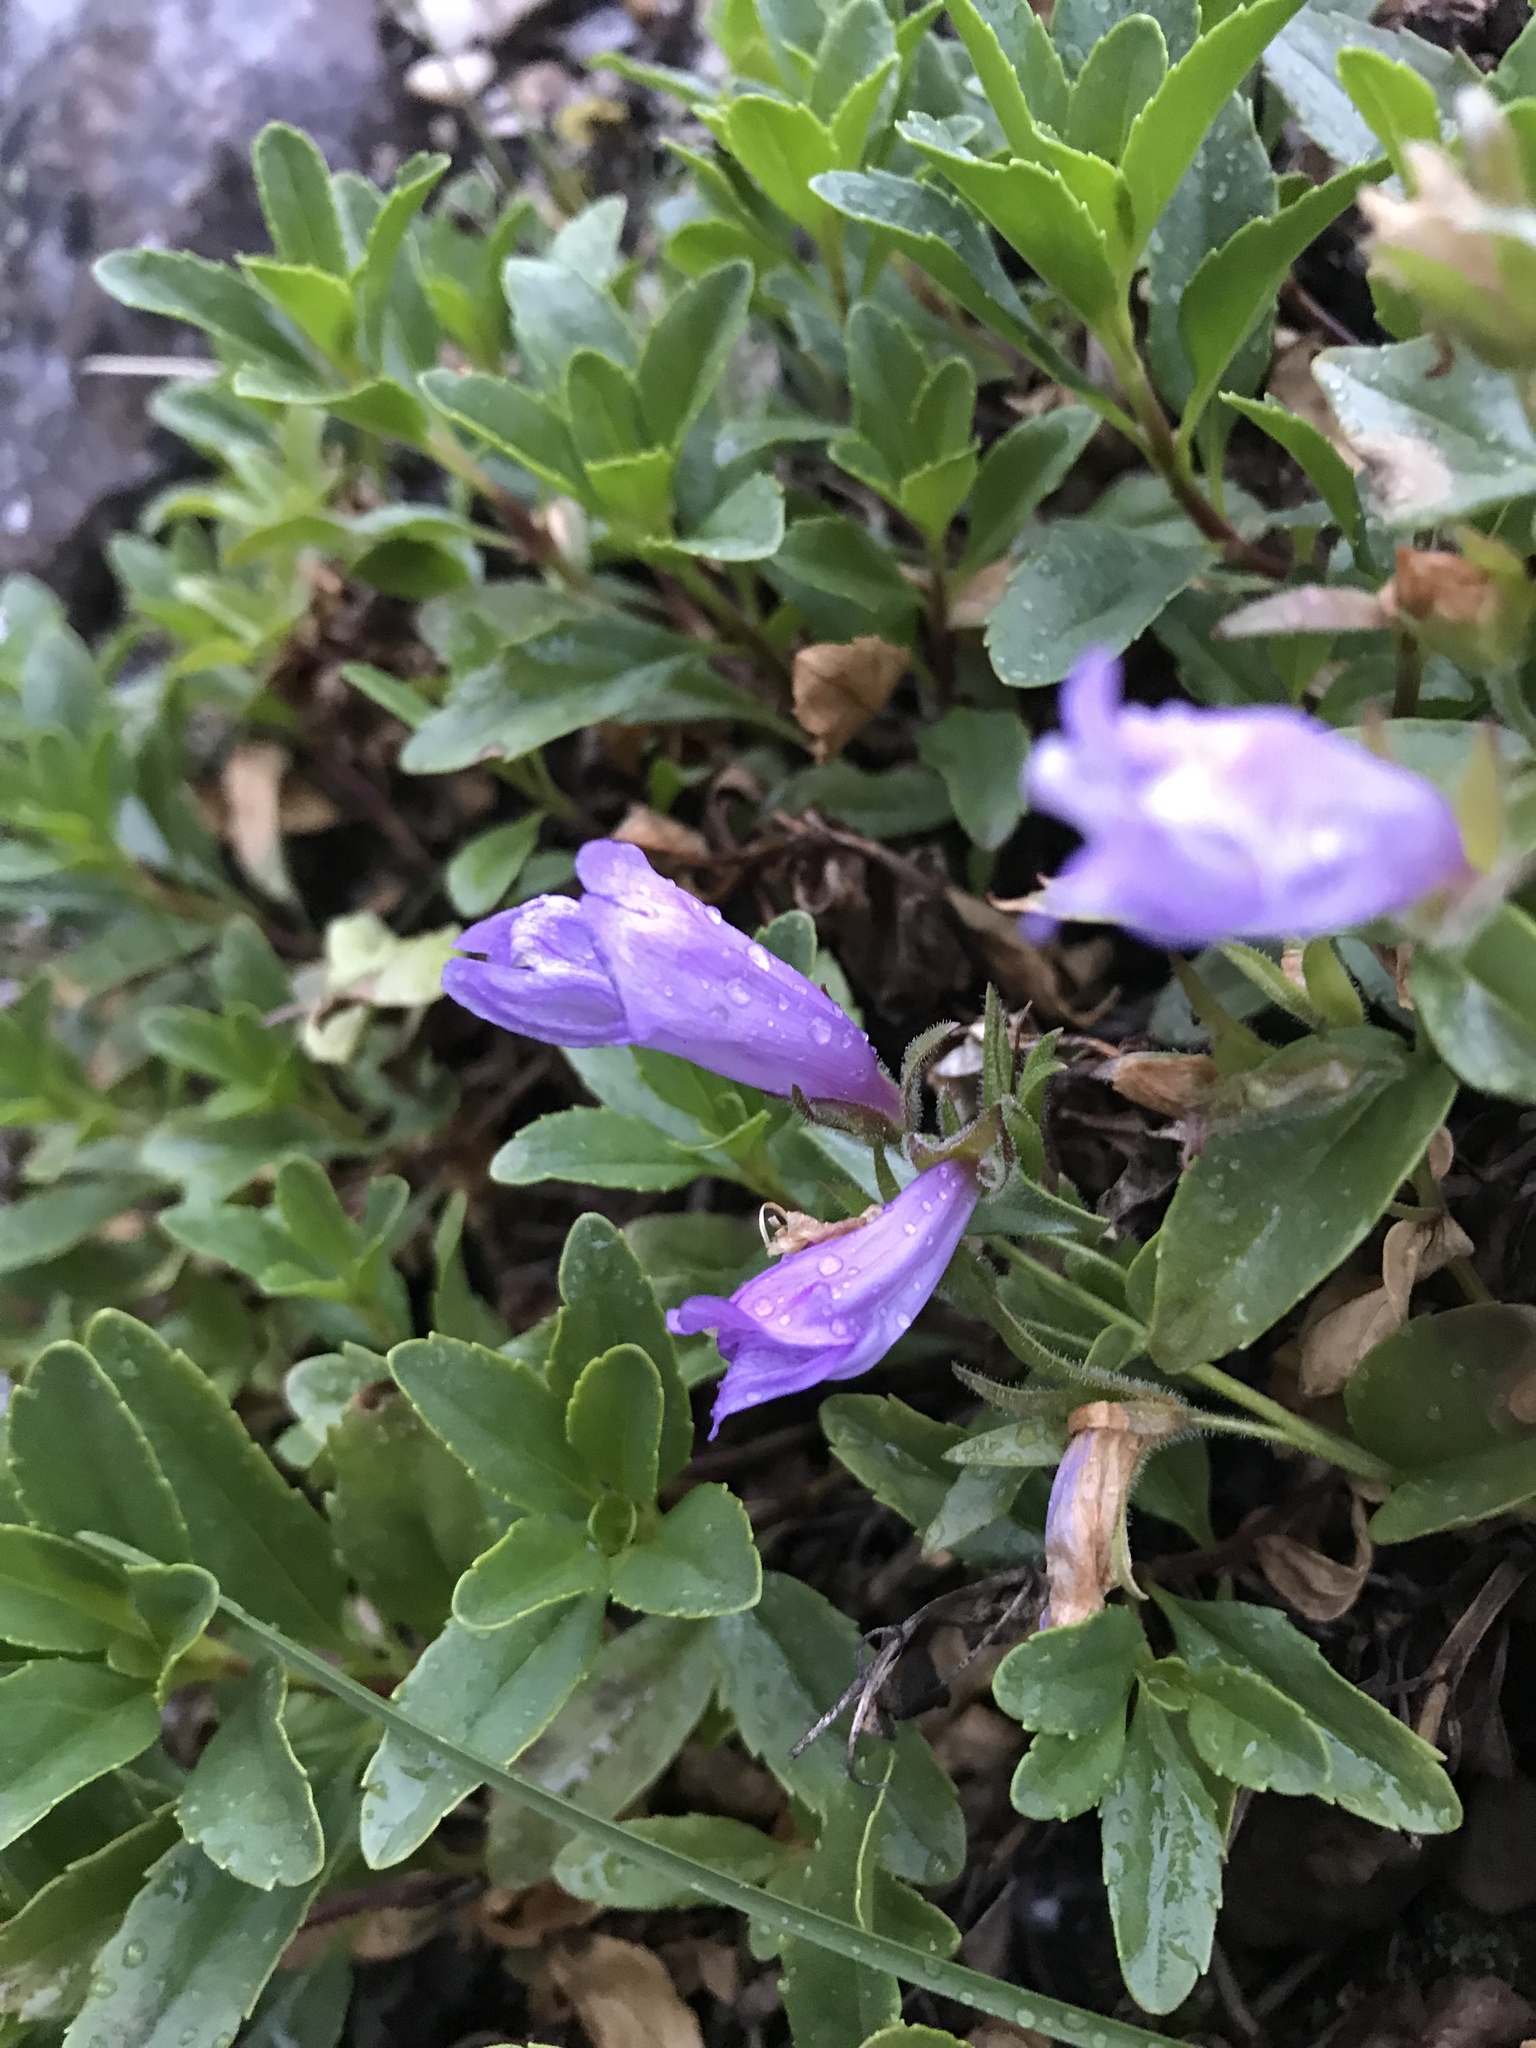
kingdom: Plantae
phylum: Tracheophyta
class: Magnoliopsida
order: Lamiales
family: Plantaginaceae
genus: Penstemon
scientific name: Penstemon ellipticus
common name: Alpine beardtongue
